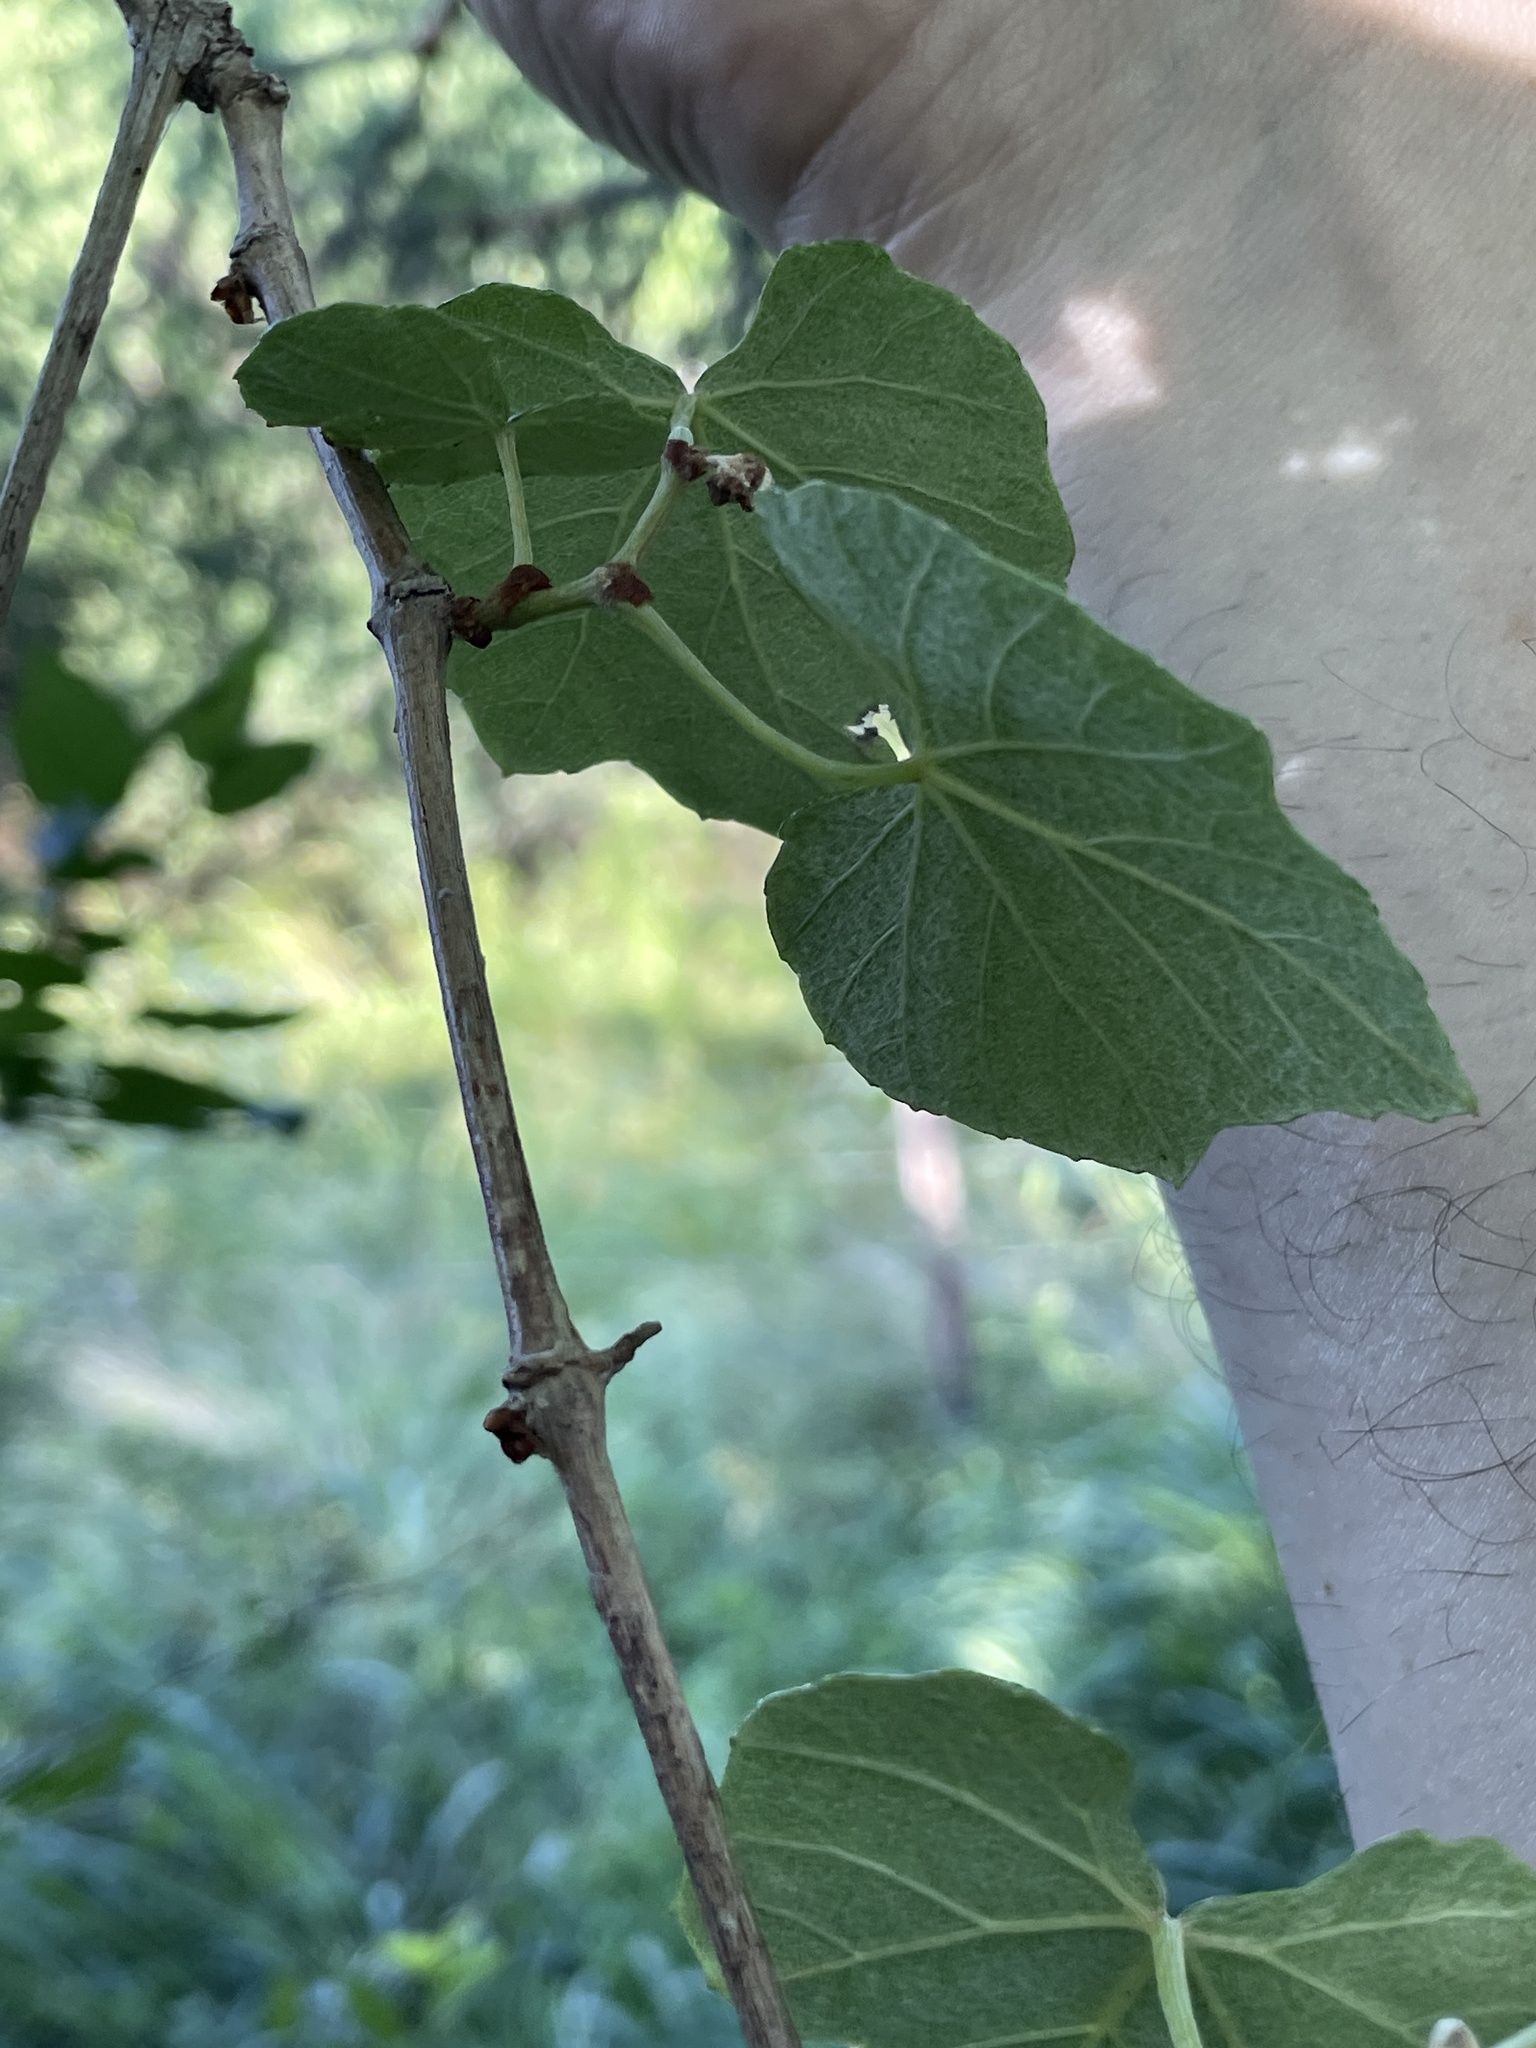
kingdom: Plantae
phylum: Tracheophyta
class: Magnoliopsida
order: Vitales
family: Vitaceae
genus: Vitis
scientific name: Vitis mustangensis
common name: Mustang grape
